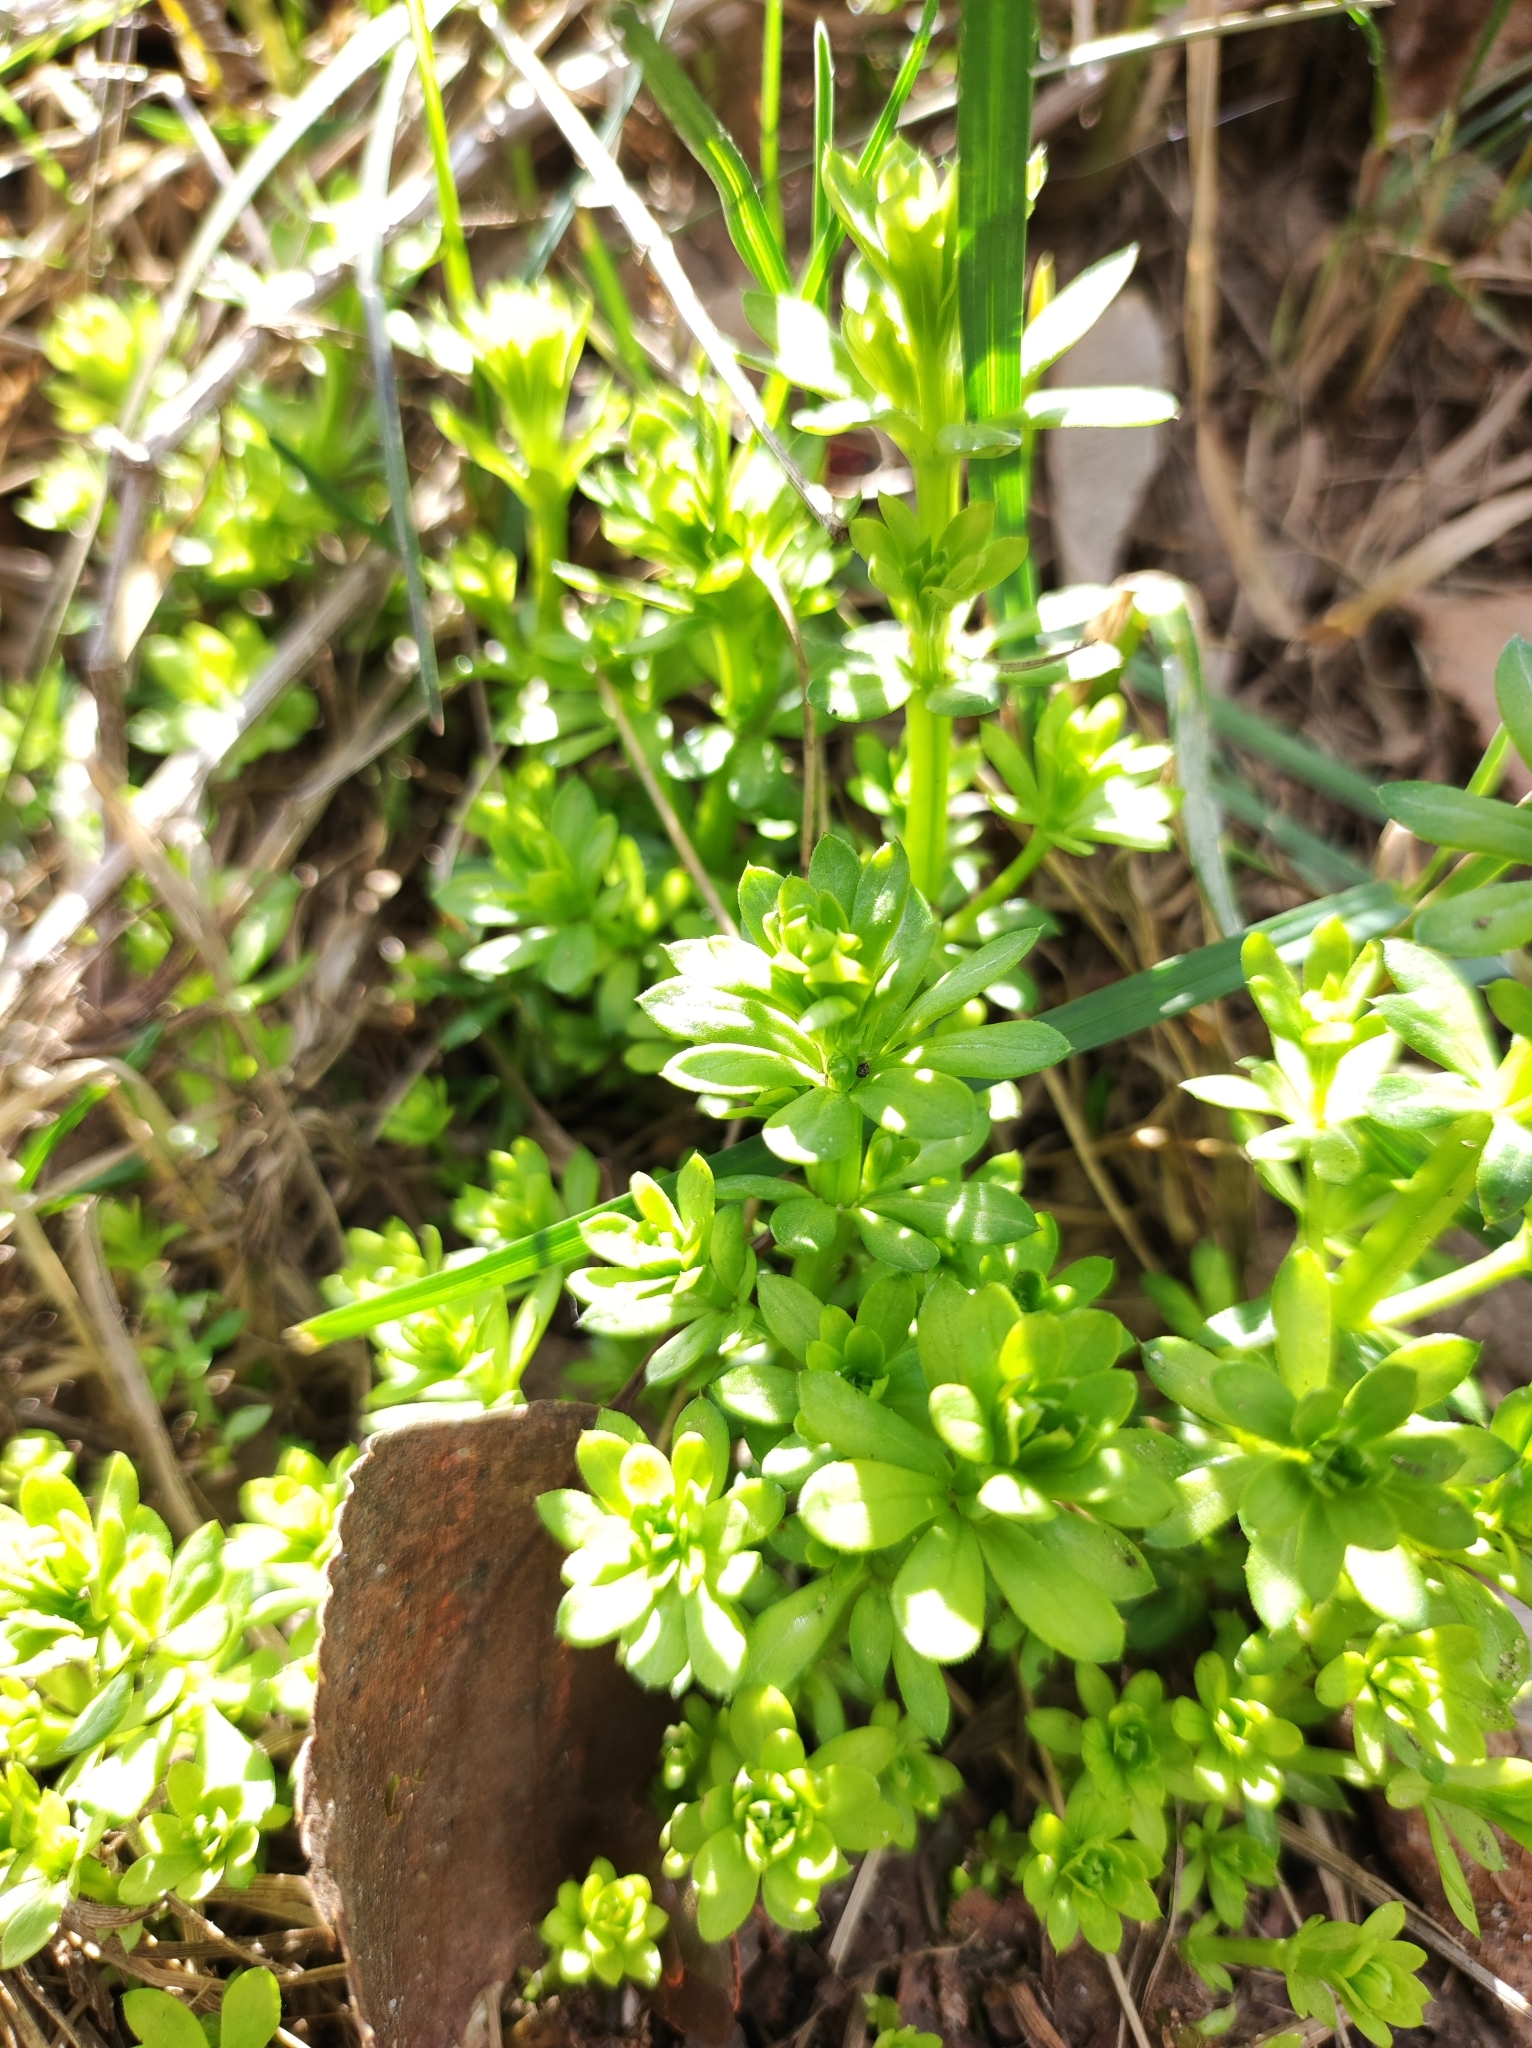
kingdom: Plantae
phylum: Tracheophyta
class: Magnoliopsida
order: Gentianales
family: Rubiaceae
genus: Galium
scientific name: Galium mollugo
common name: Hedge bedstraw
